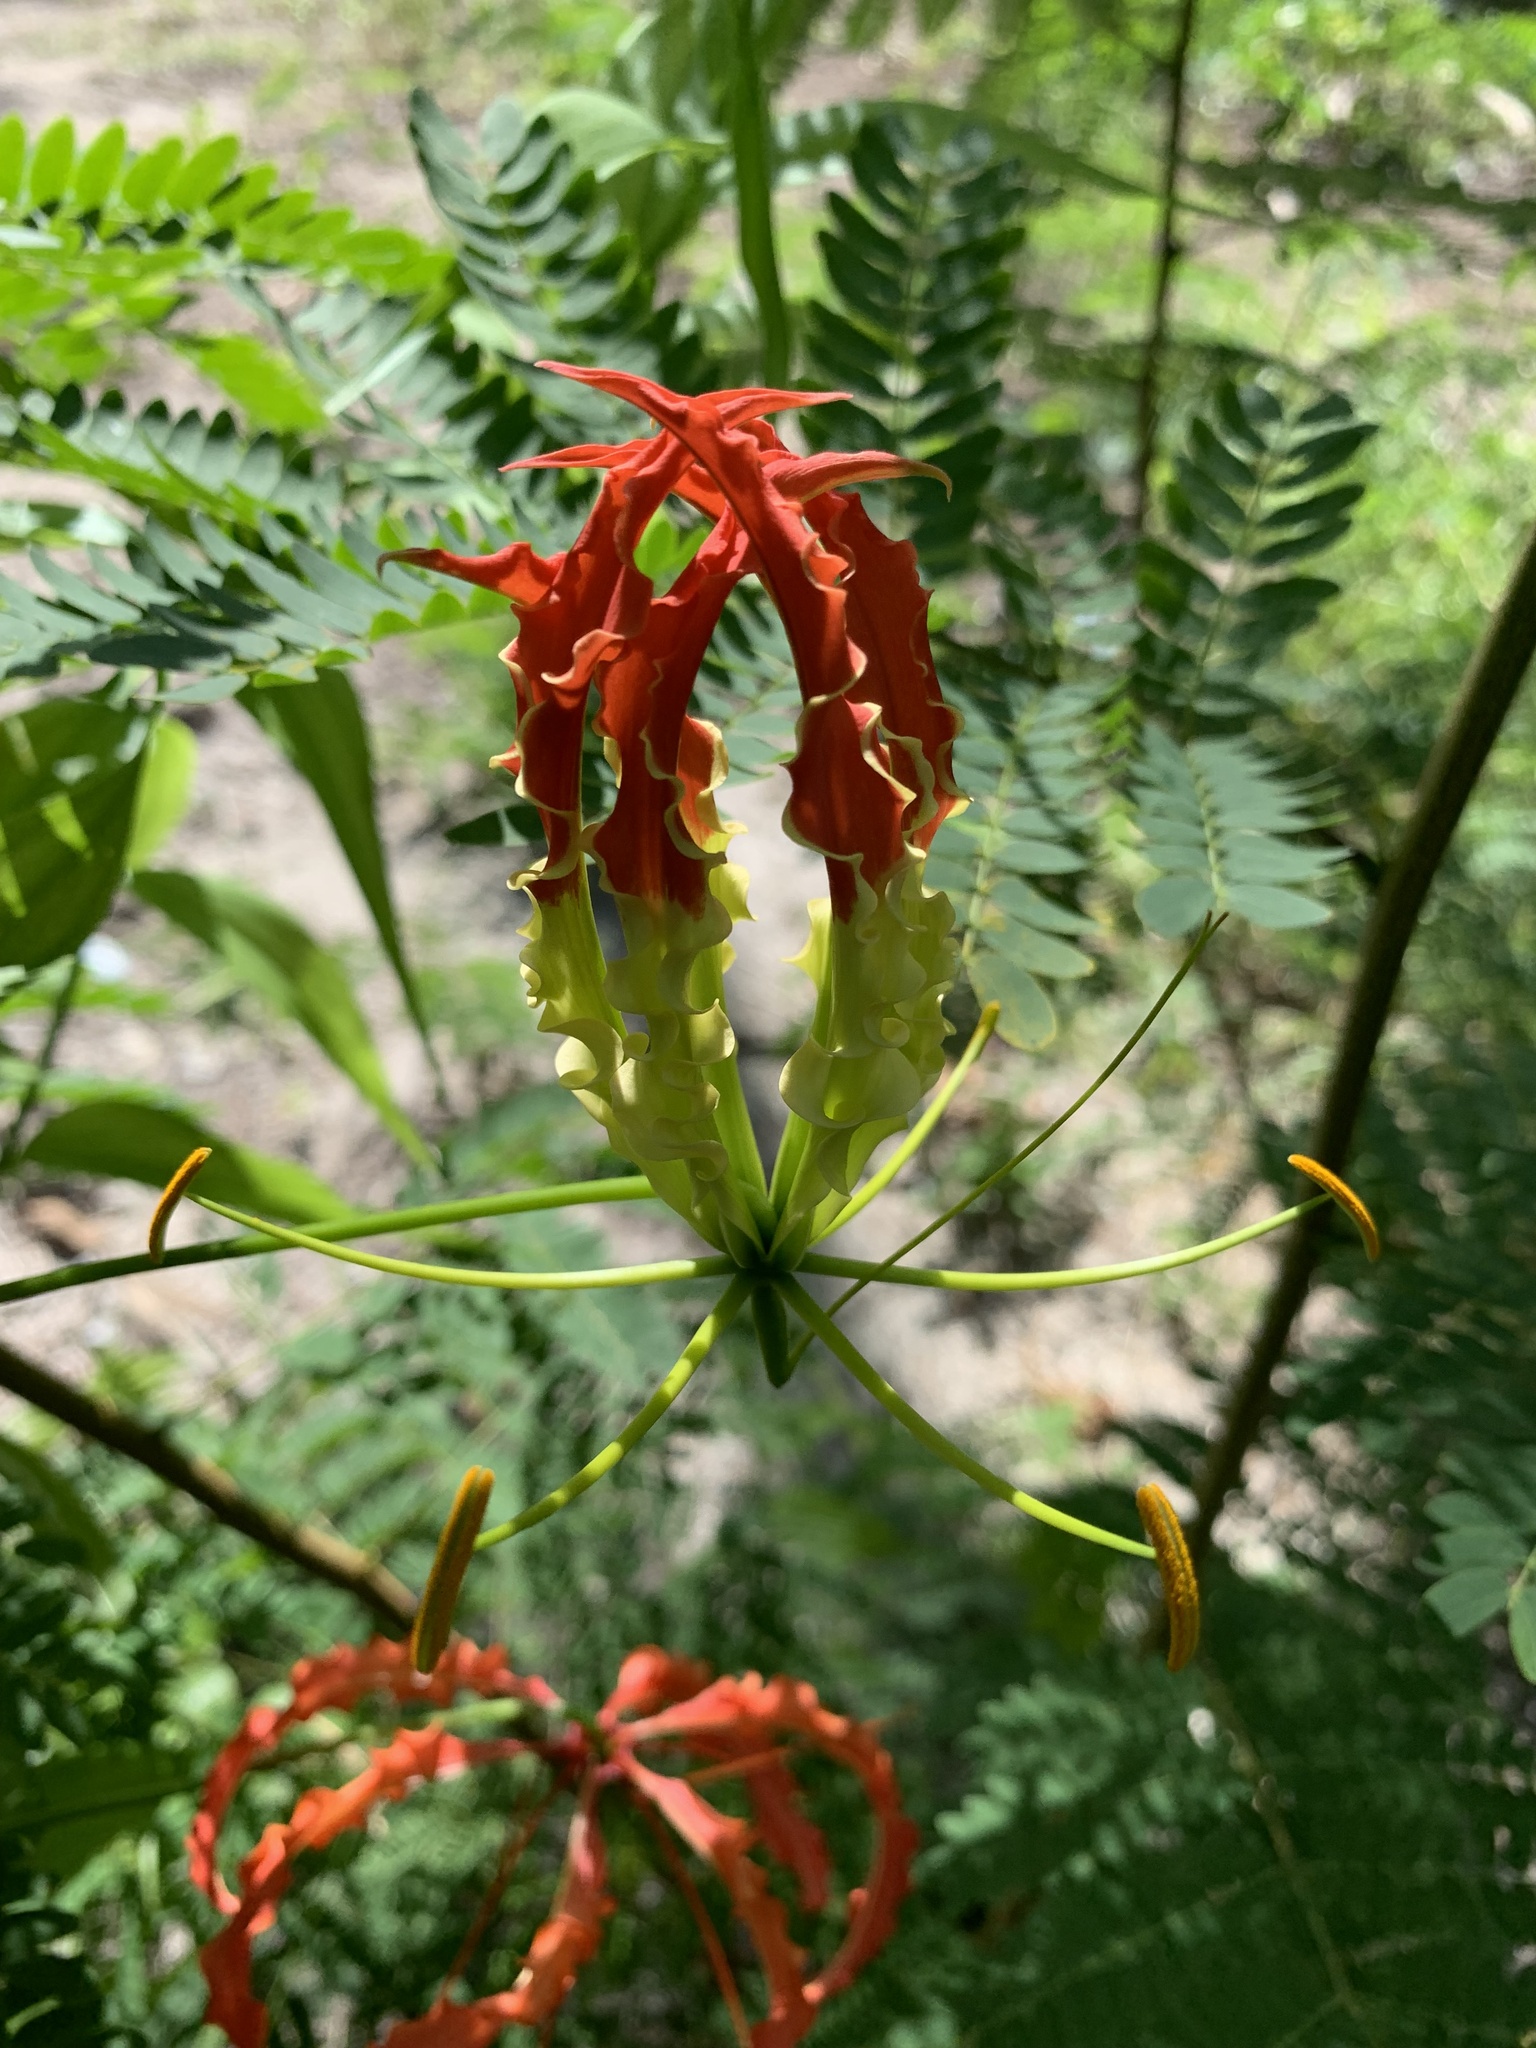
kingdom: Plantae
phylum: Tracheophyta
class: Liliopsida
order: Liliales
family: Colchicaceae
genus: Gloriosa
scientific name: Gloriosa superba
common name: Flame lily
